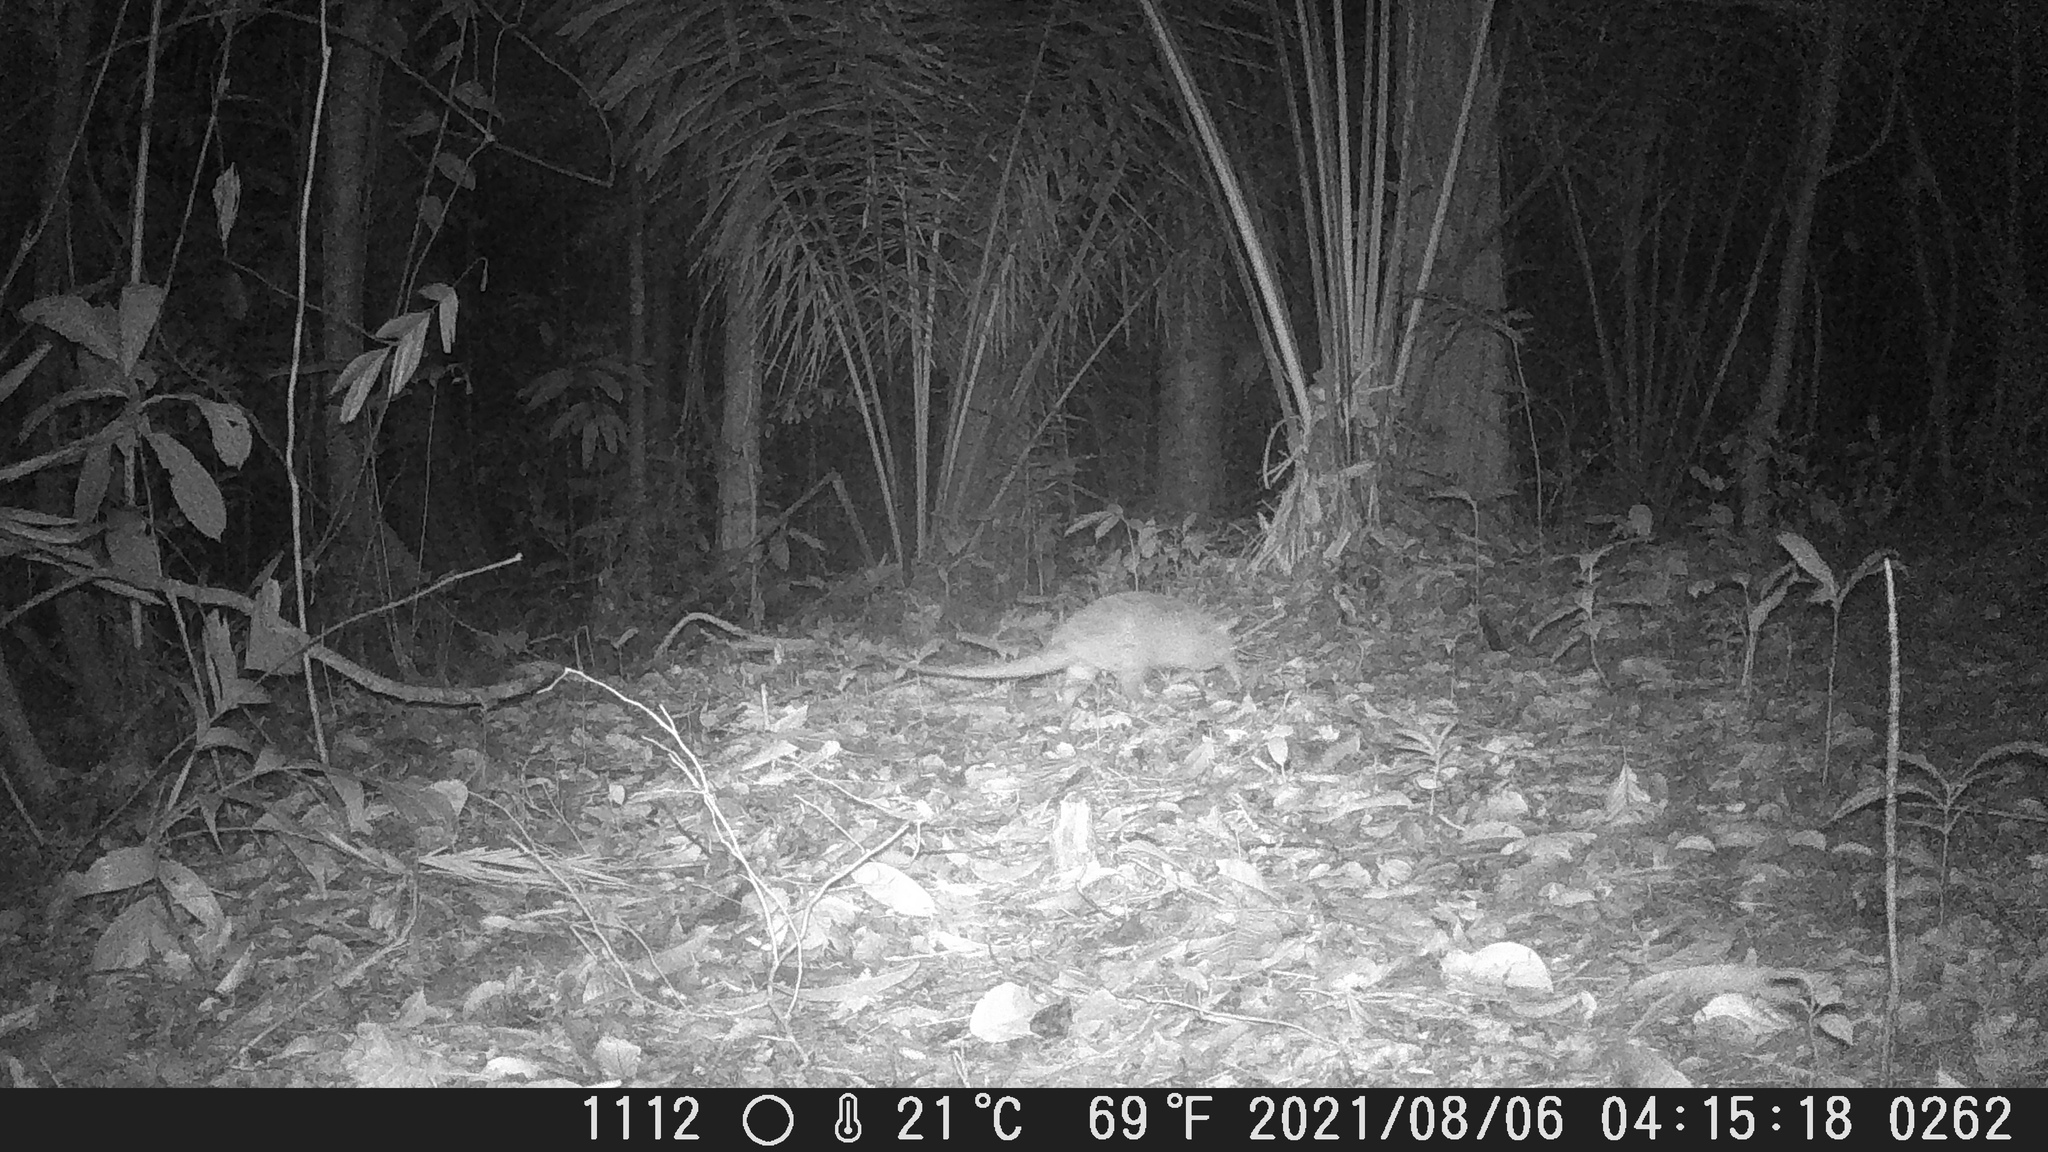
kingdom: Animalia
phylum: Chordata
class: Mammalia
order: Cingulata
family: Dasypodidae
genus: Dasypus
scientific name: Dasypus novemcinctus
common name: Nine-banded armadillo
